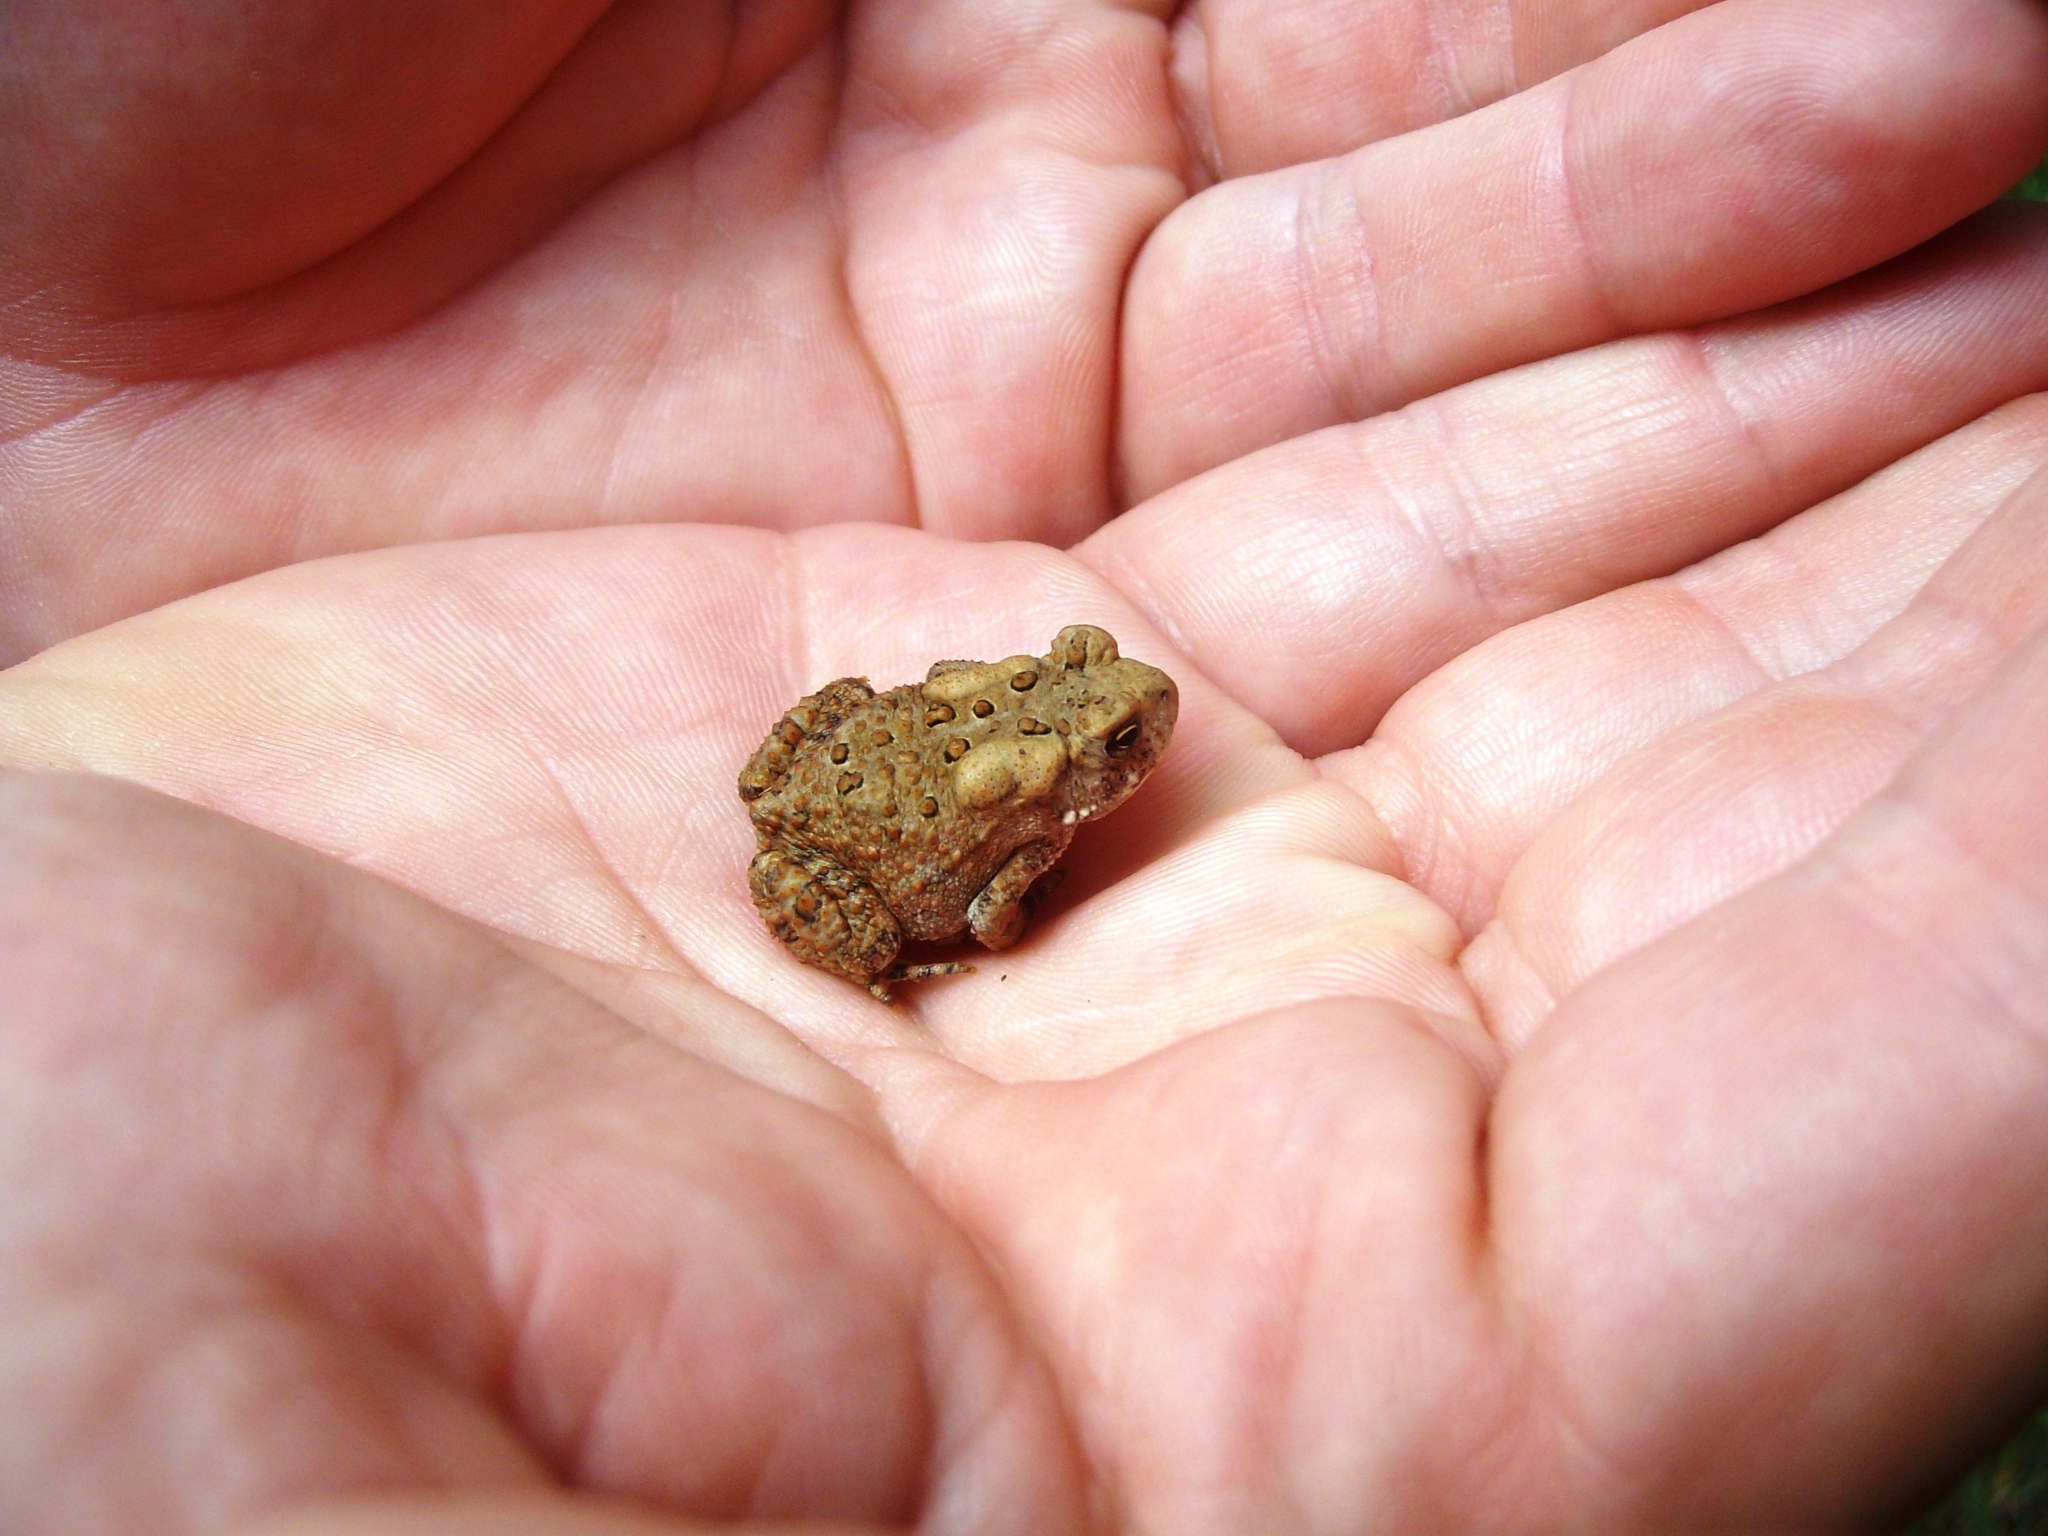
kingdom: Animalia
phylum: Chordata
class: Amphibia
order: Anura
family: Bufonidae
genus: Anaxyrus
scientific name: Anaxyrus americanus
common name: American toad
